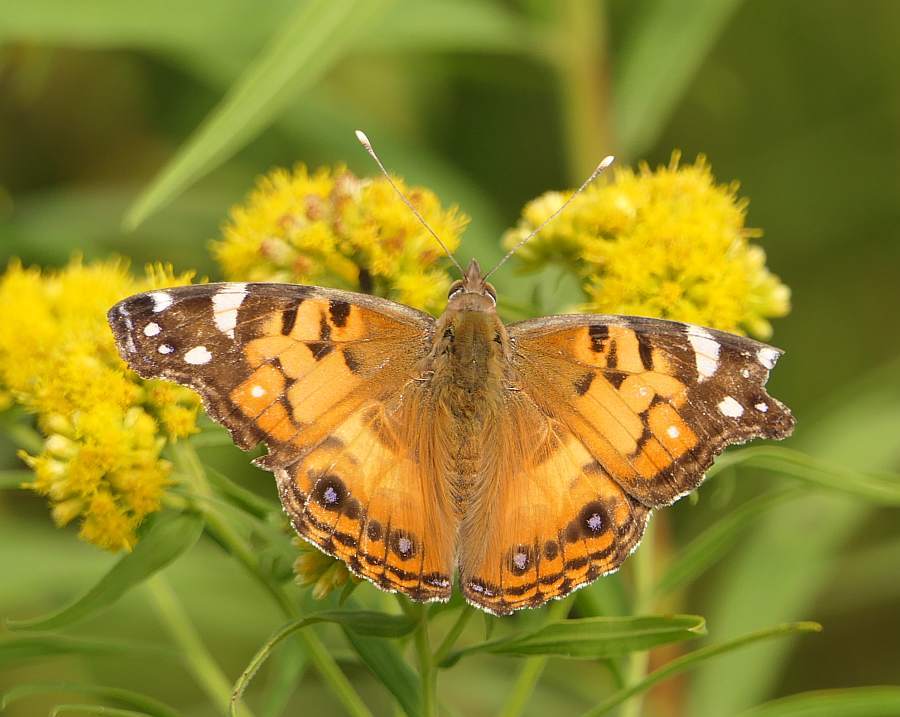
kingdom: Animalia
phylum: Arthropoda
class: Insecta
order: Lepidoptera
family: Nymphalidae
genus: Vanessa
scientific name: Vanessa virginiensis
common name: American lady
